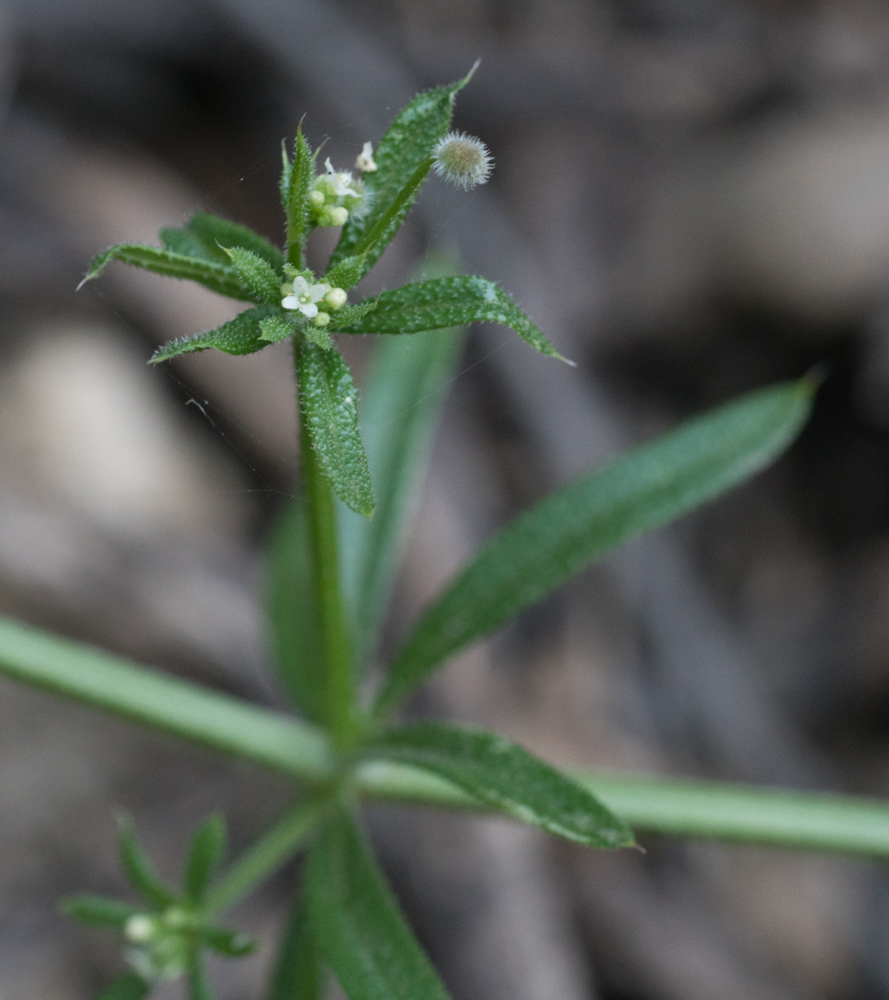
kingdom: Plantae
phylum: Tracheophyta
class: Magnoliopsida
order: Gentianales
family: Rubiaceae
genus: Galium
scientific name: Galium aparine
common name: Cleavers
